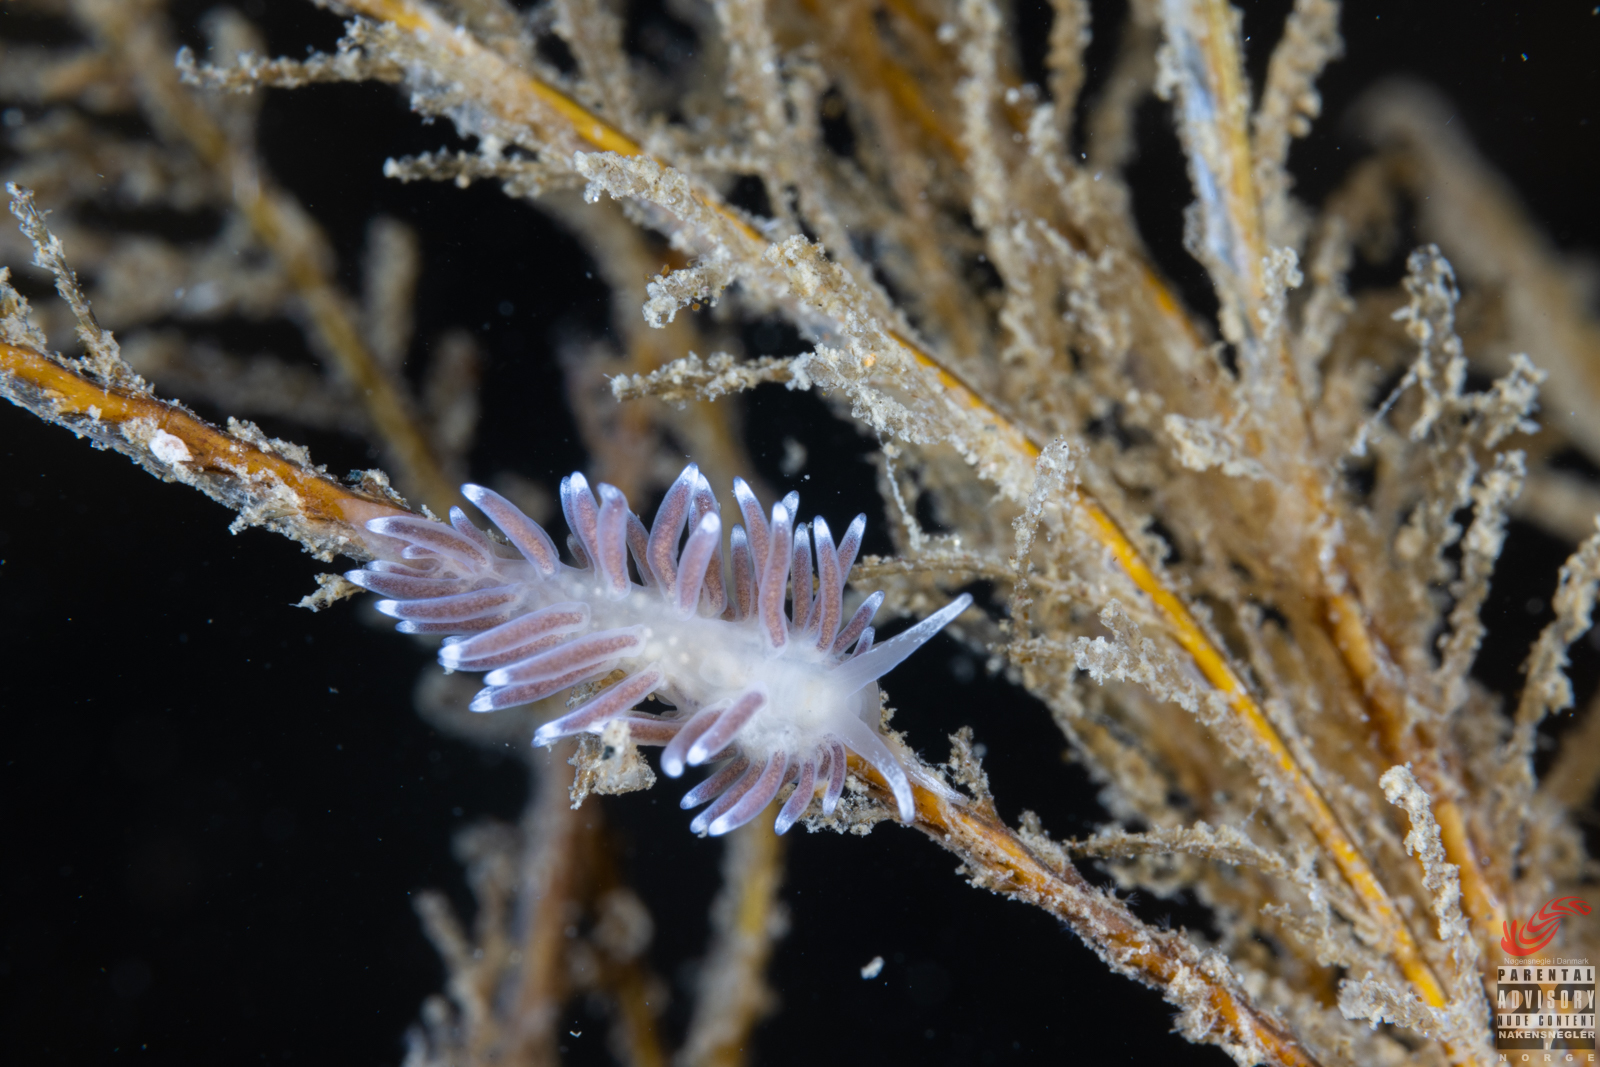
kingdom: Animalia
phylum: Mollusca
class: Gastropoda
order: Nudibranchia
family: Cuthonellidae
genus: Cuthonella
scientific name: Cuthonella concinna
